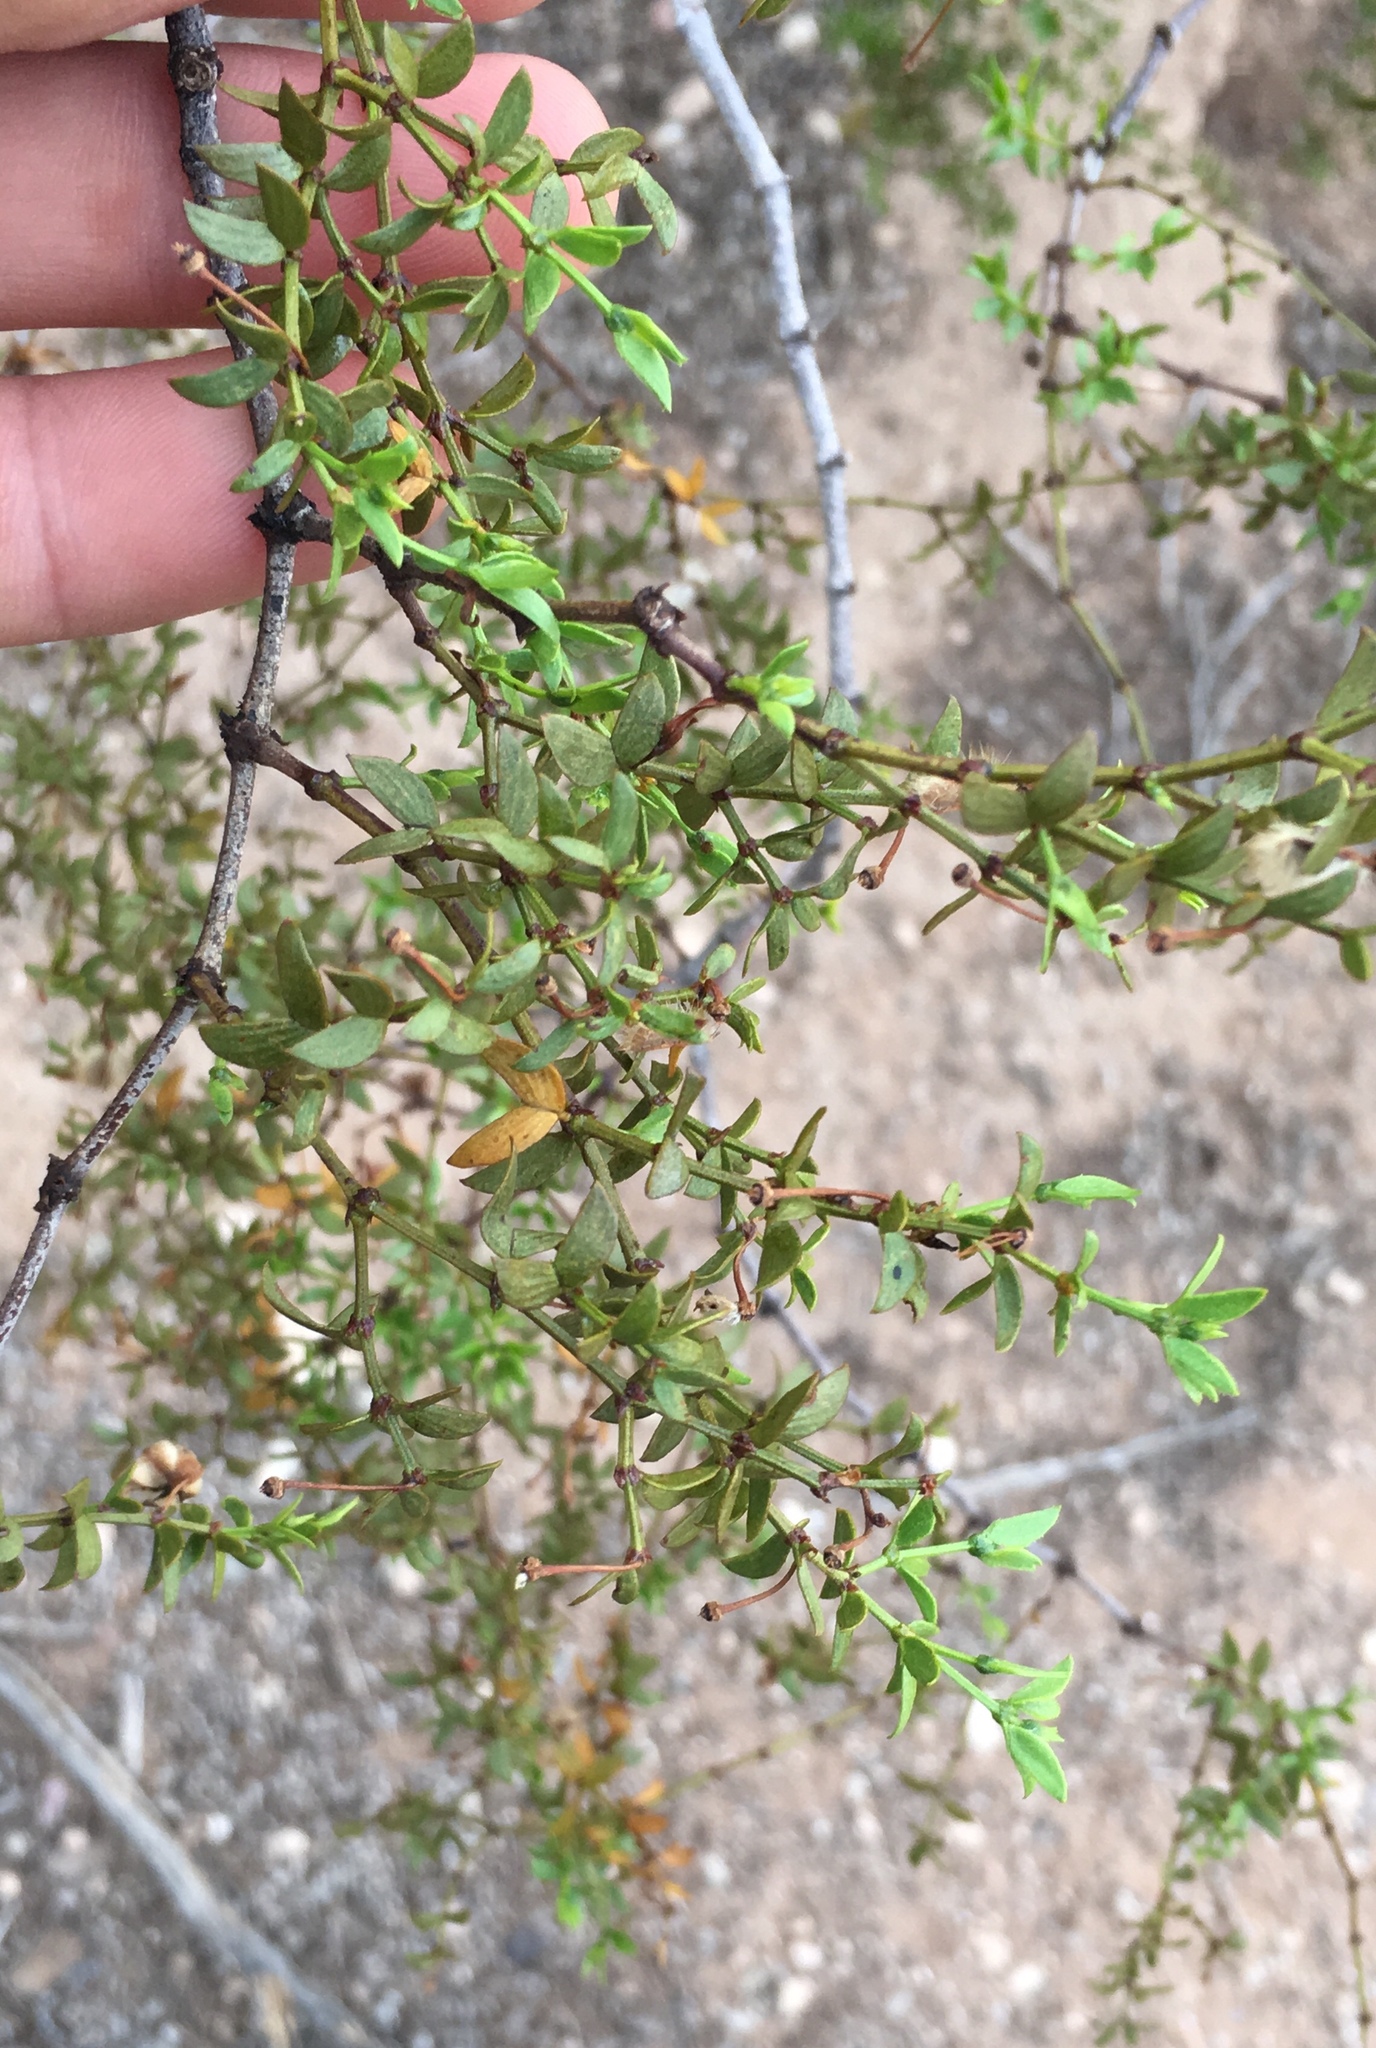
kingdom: Plantae
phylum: Tracheophyta
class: Magnoliopsida
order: Zygophyllales
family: Zygophyllaceae
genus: Larrea
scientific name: Larrea tridentata
